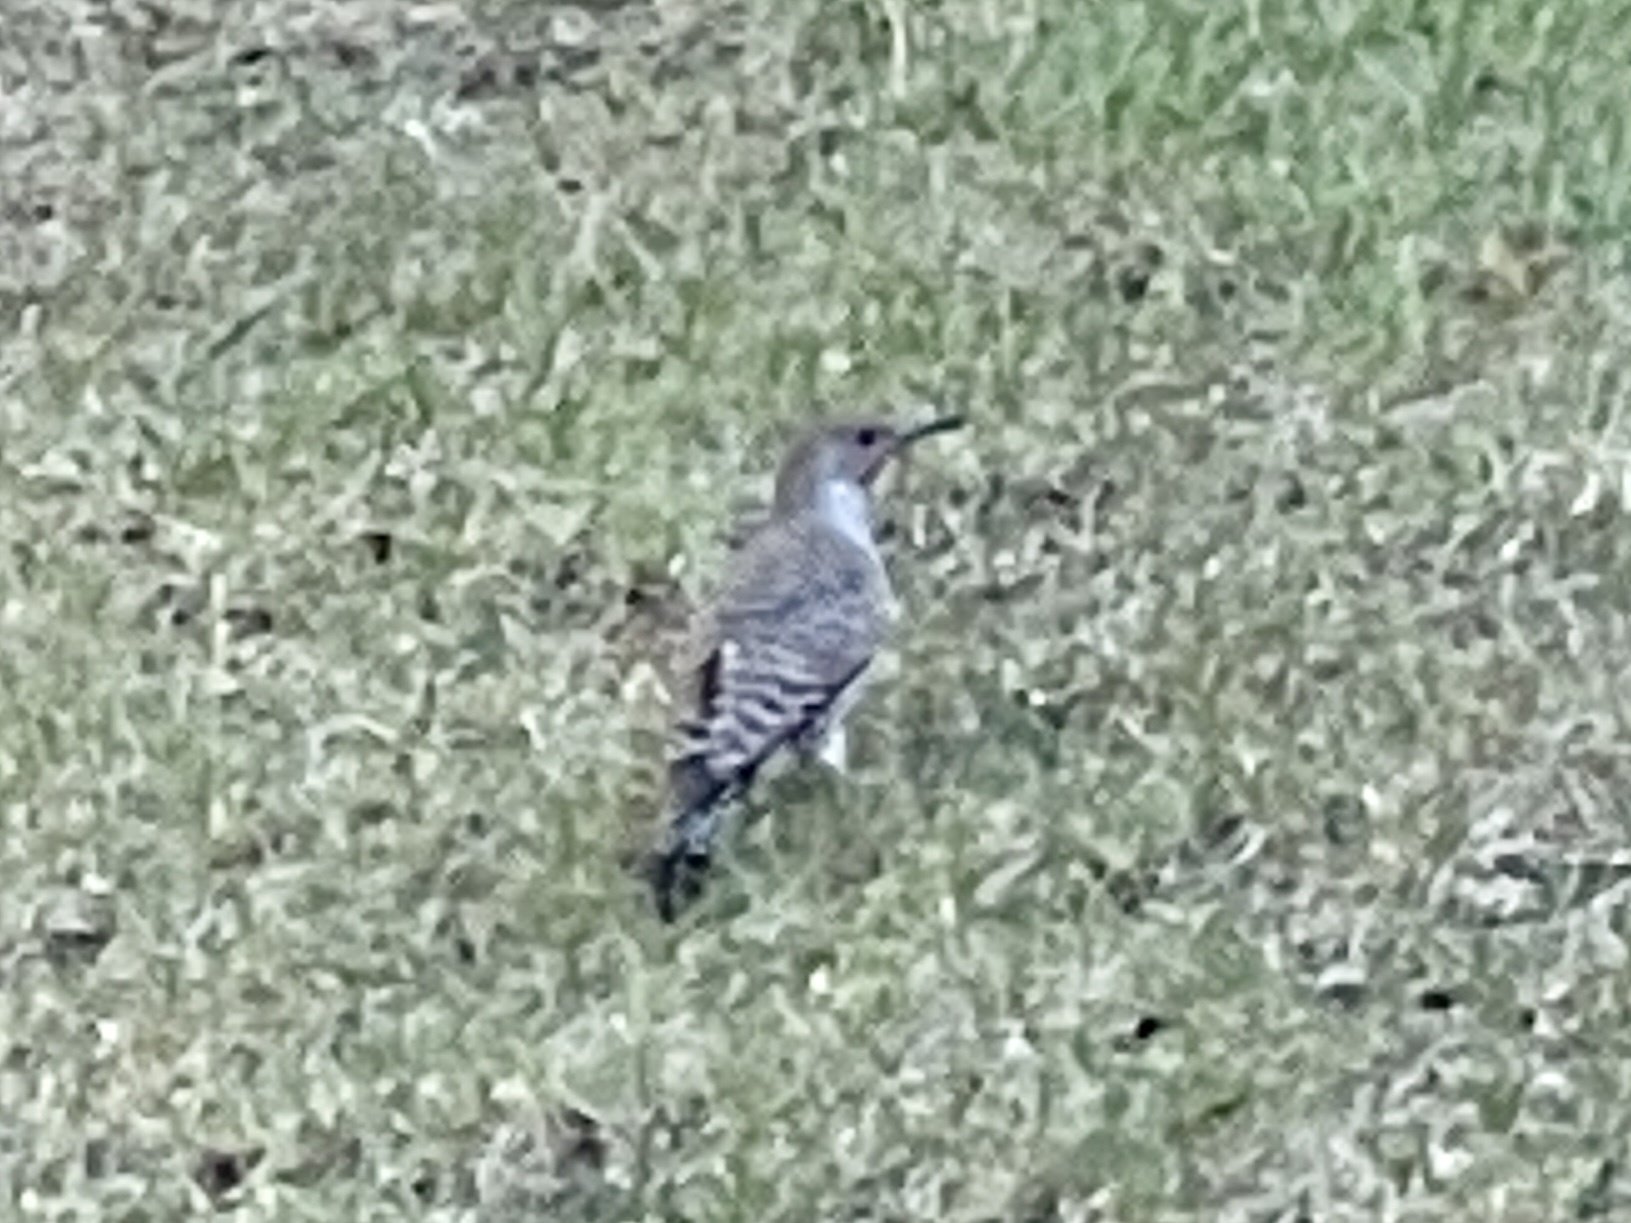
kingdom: Animalia
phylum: Chordata
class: Aves
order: Piciformes
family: Picidae
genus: Colaptes
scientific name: Colaptes auratus
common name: Northern flicker
